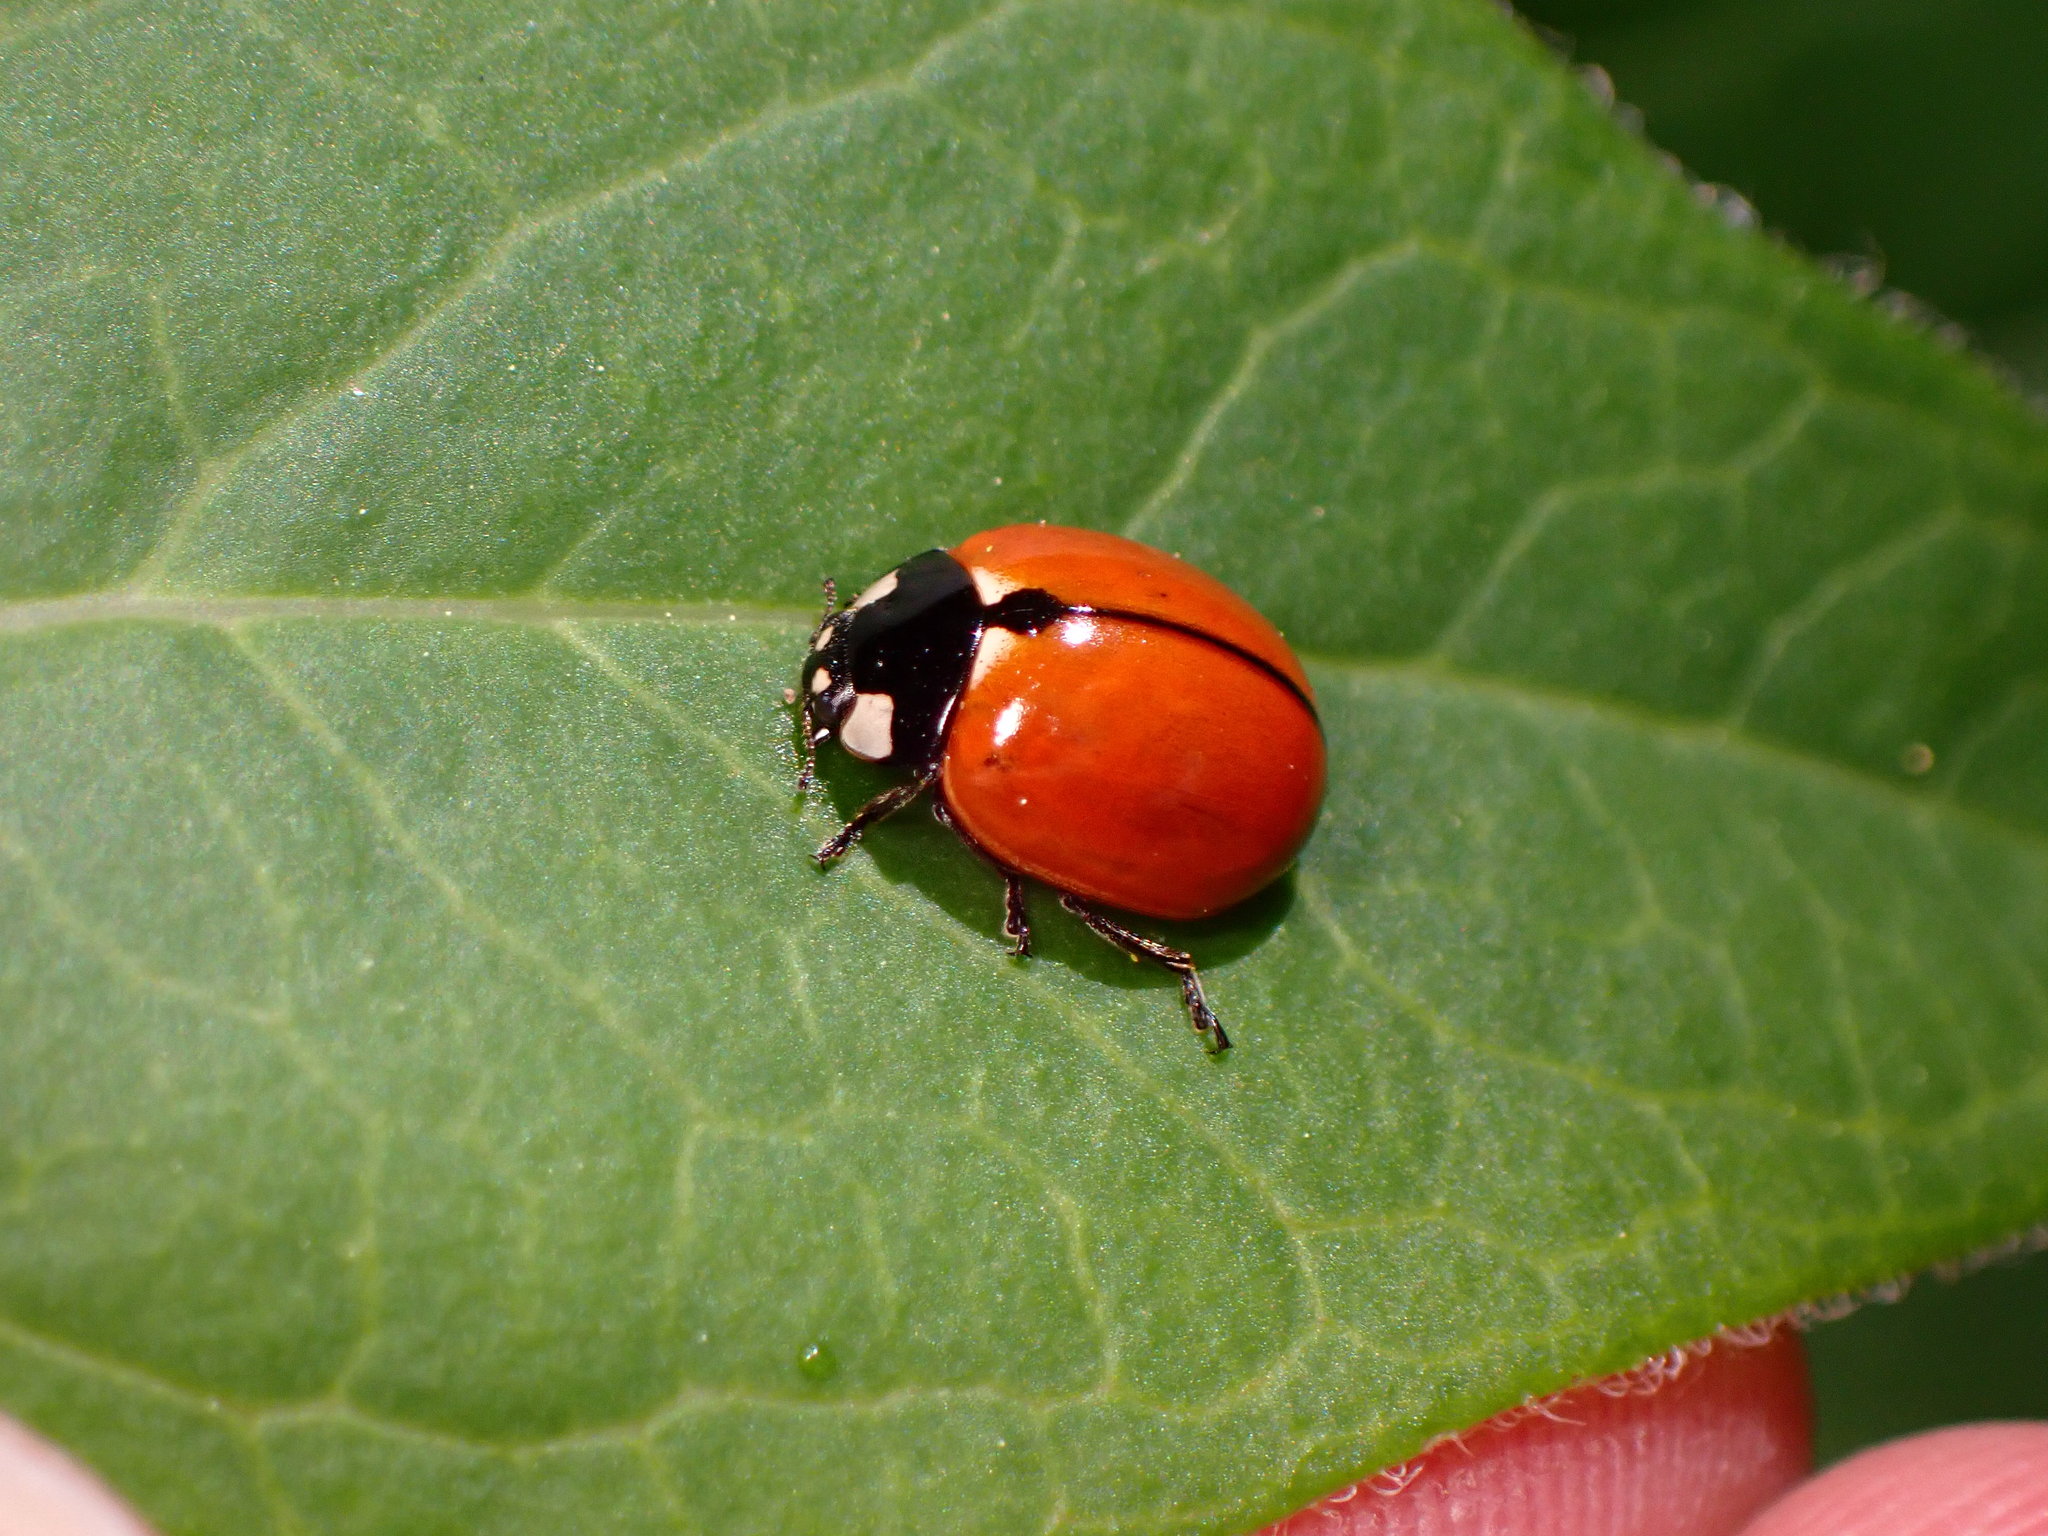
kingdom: Animalia
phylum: Arthropoda
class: Insecta
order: Coleoptera
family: Coccinellidae
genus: Coccinella
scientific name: Coccinella californica
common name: Lady beetle
